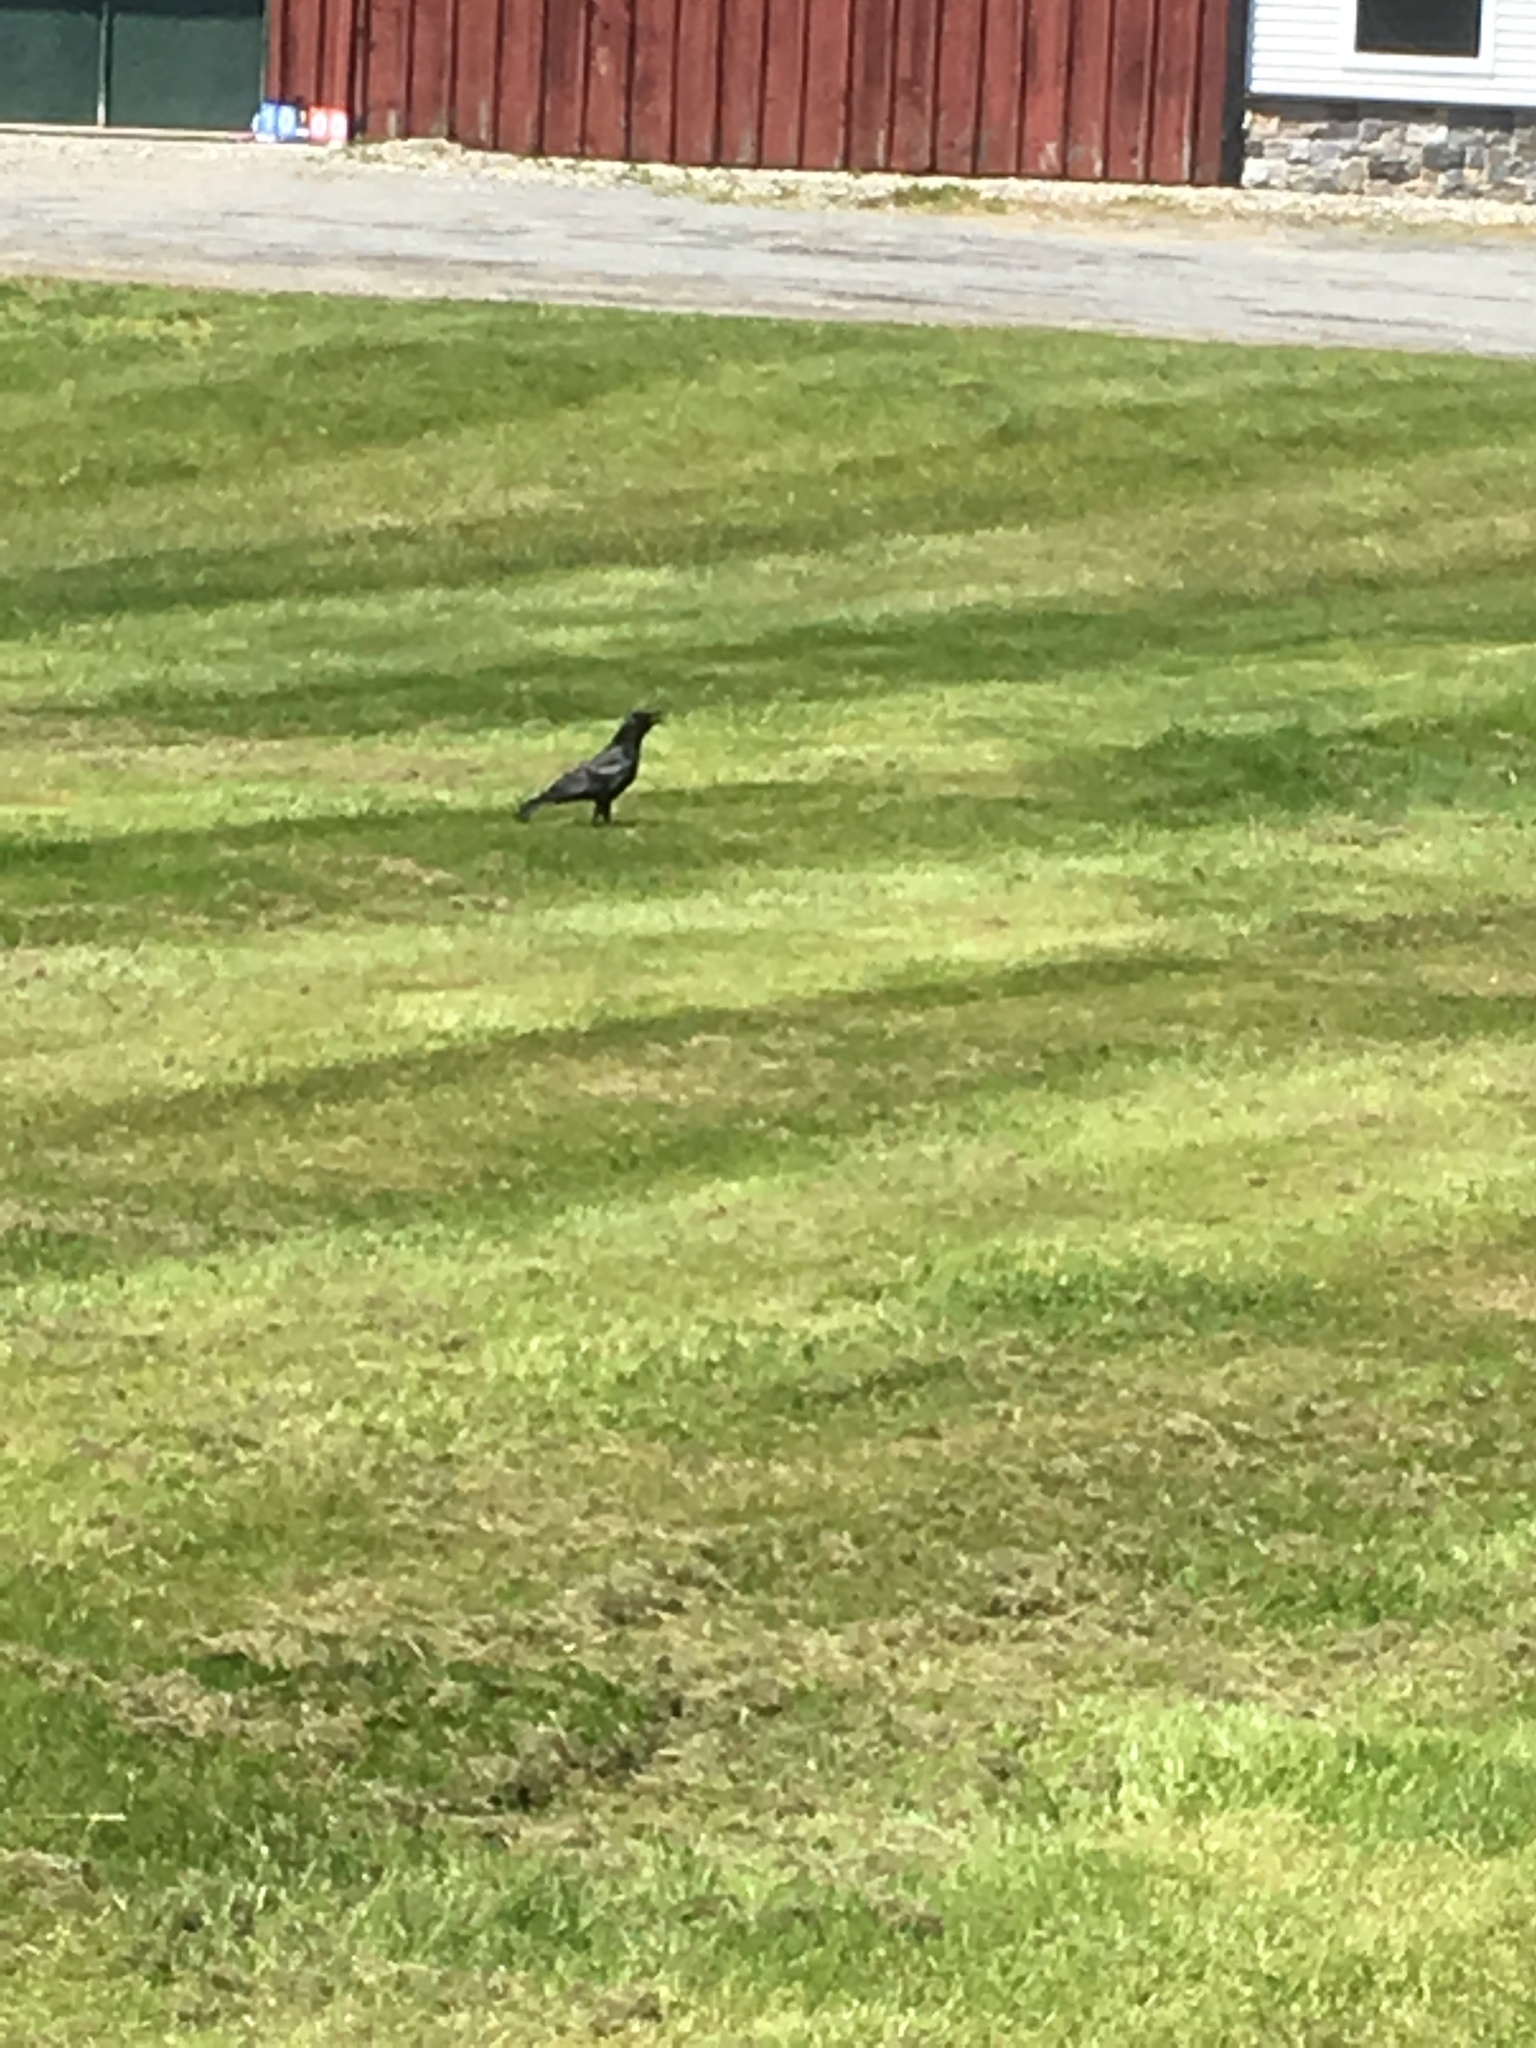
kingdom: Animalia
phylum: Chordata
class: Aves
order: Passeriformes
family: Corvidae
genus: Corvus
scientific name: Corvus brachyrhynchos
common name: American crow
